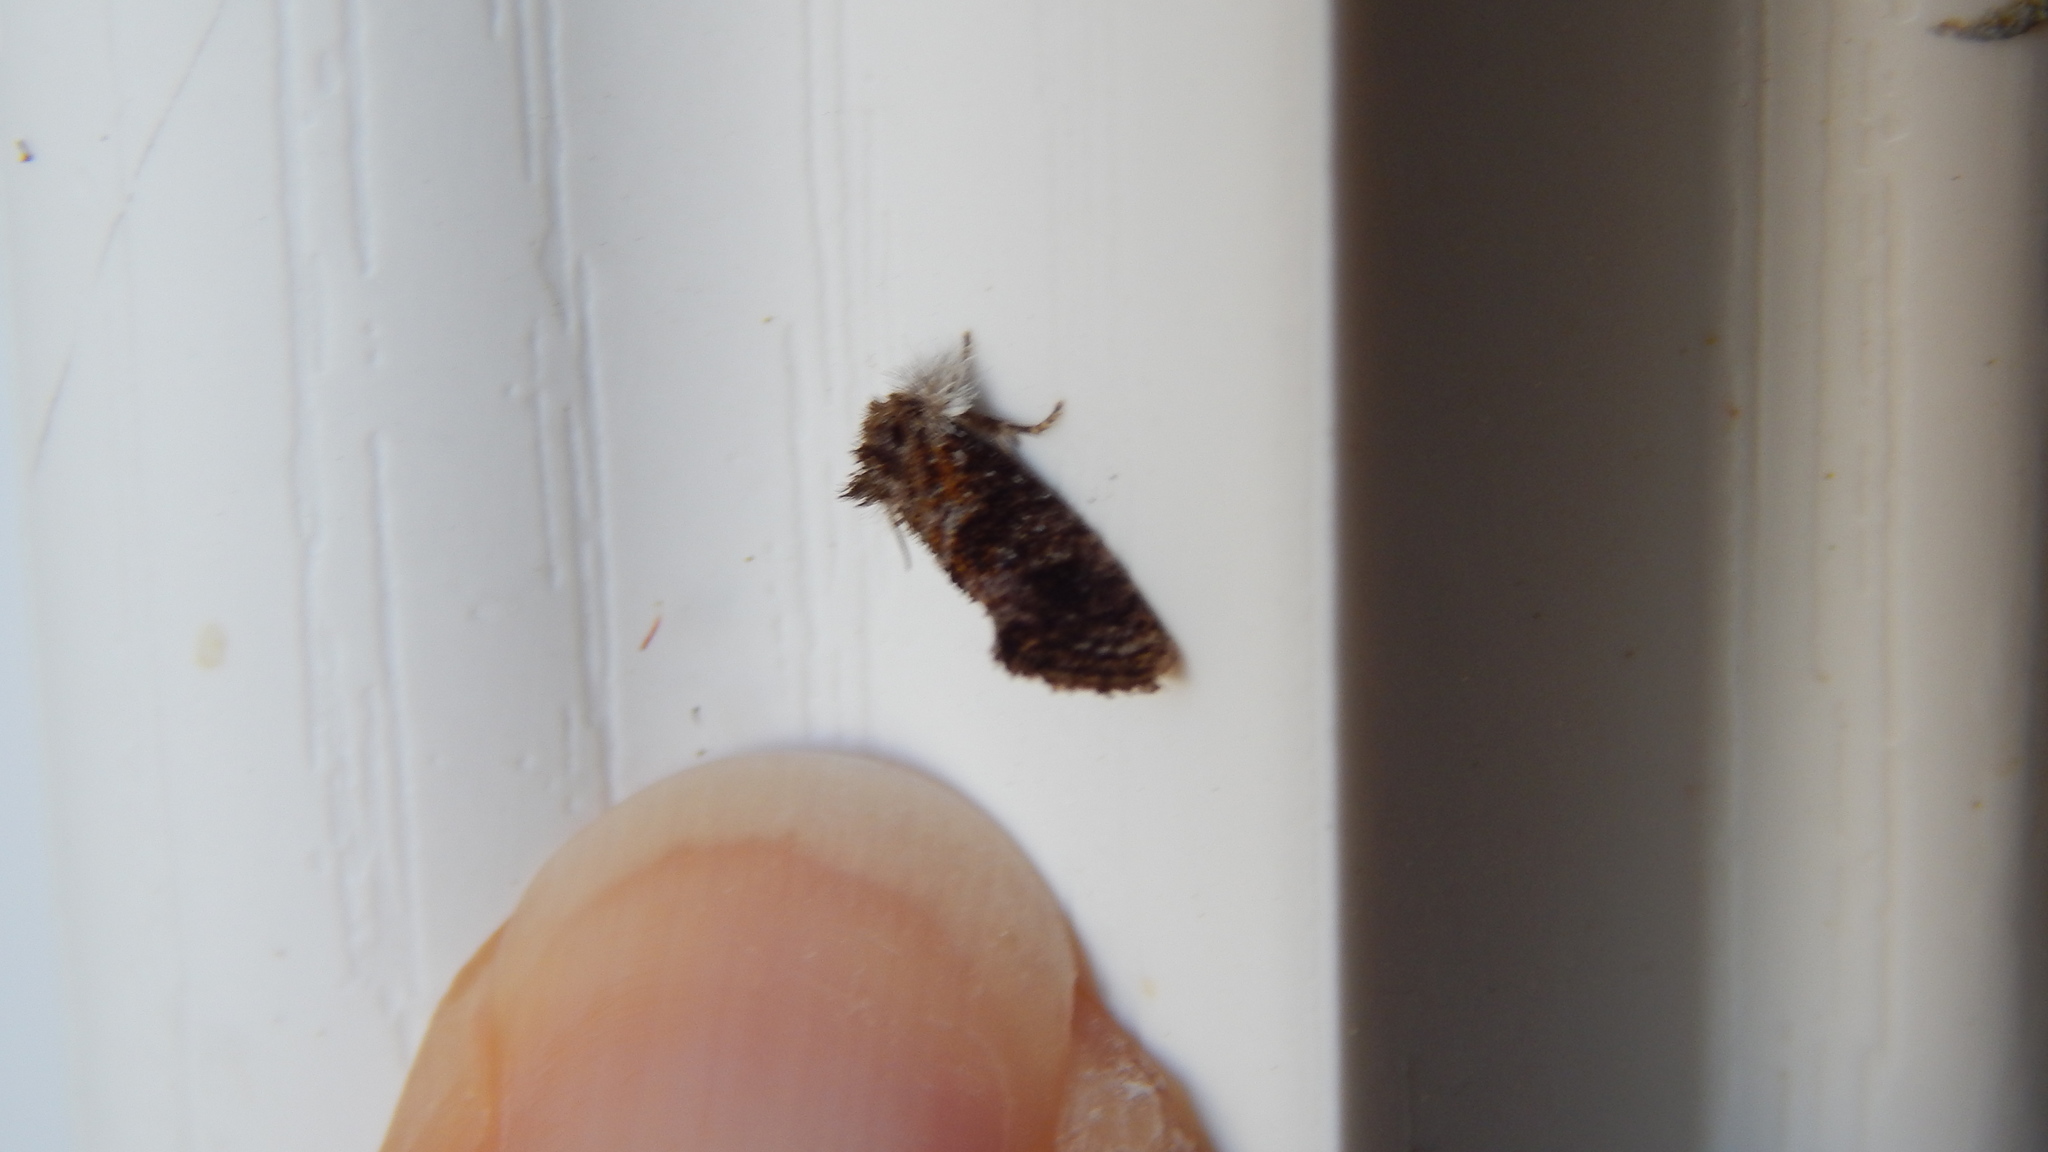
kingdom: Animalia
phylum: Arthropoda
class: Insecta
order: Lepidoptera
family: Tineidae
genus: Acrolophus
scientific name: Acrolophus panamae
